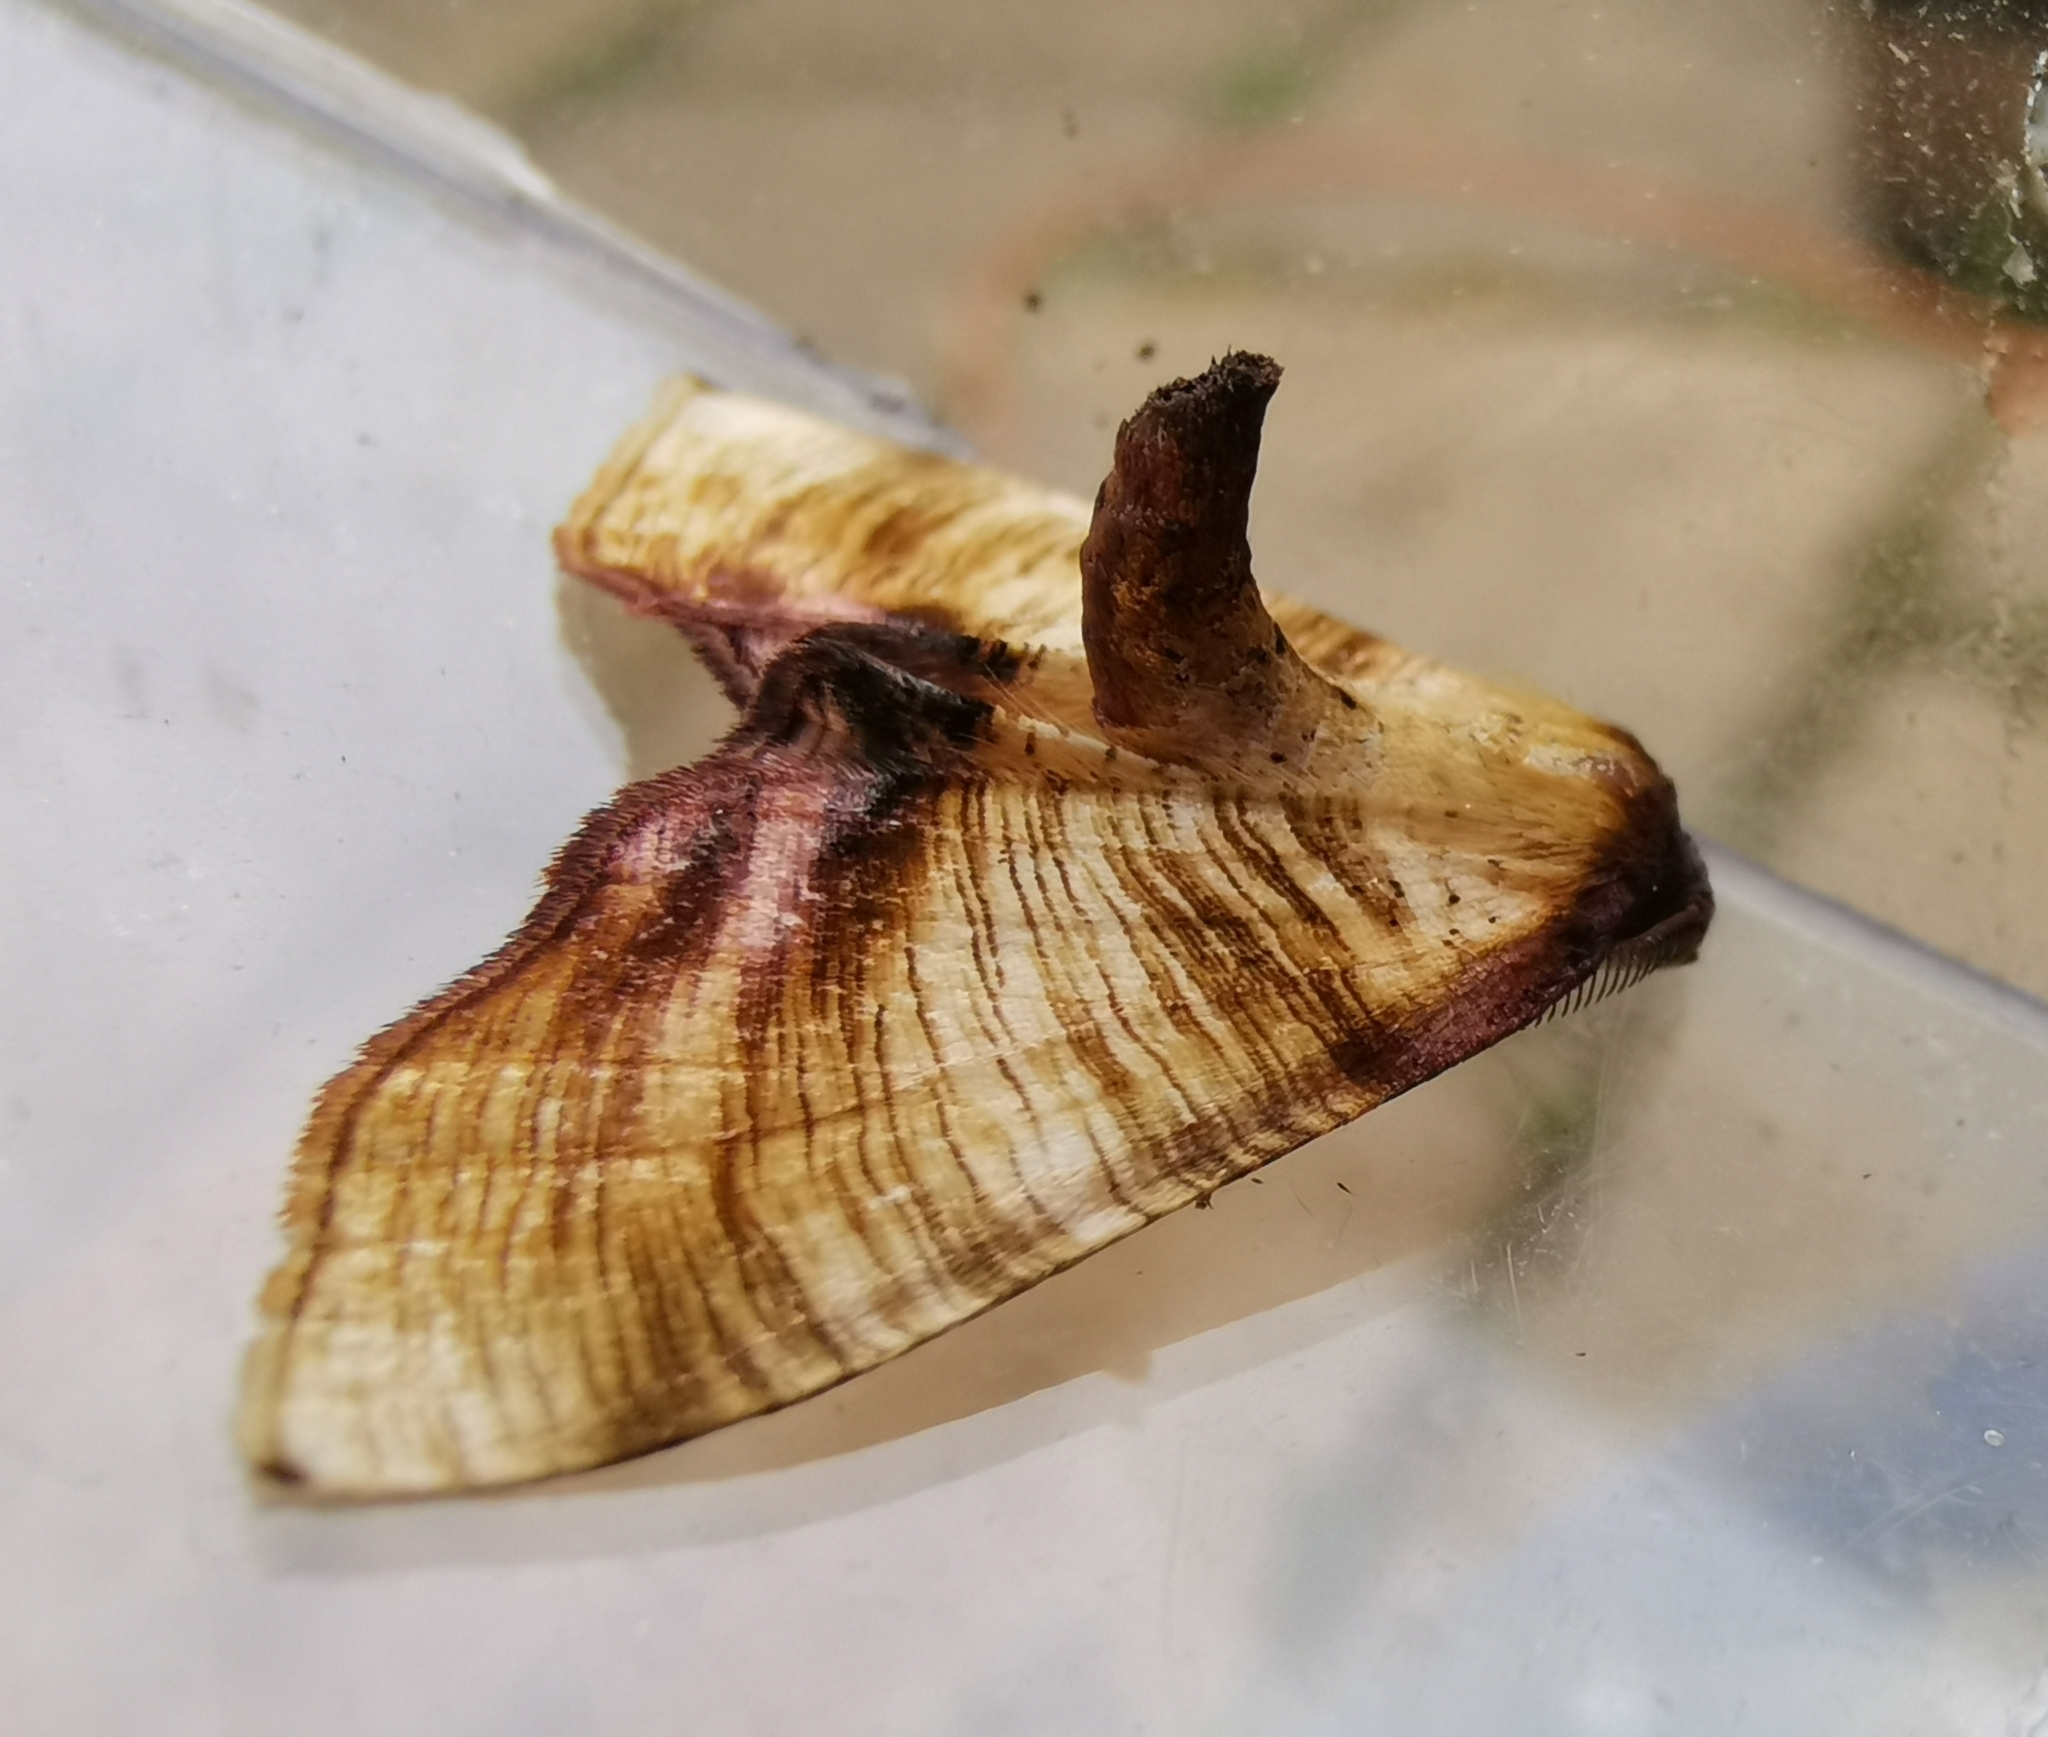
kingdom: Animalia
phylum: Arthropoda
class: Insecta
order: Lepidoptera
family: Geometridae
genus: Plagodis
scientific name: Plagodis dolabraria
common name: Scorched wing
